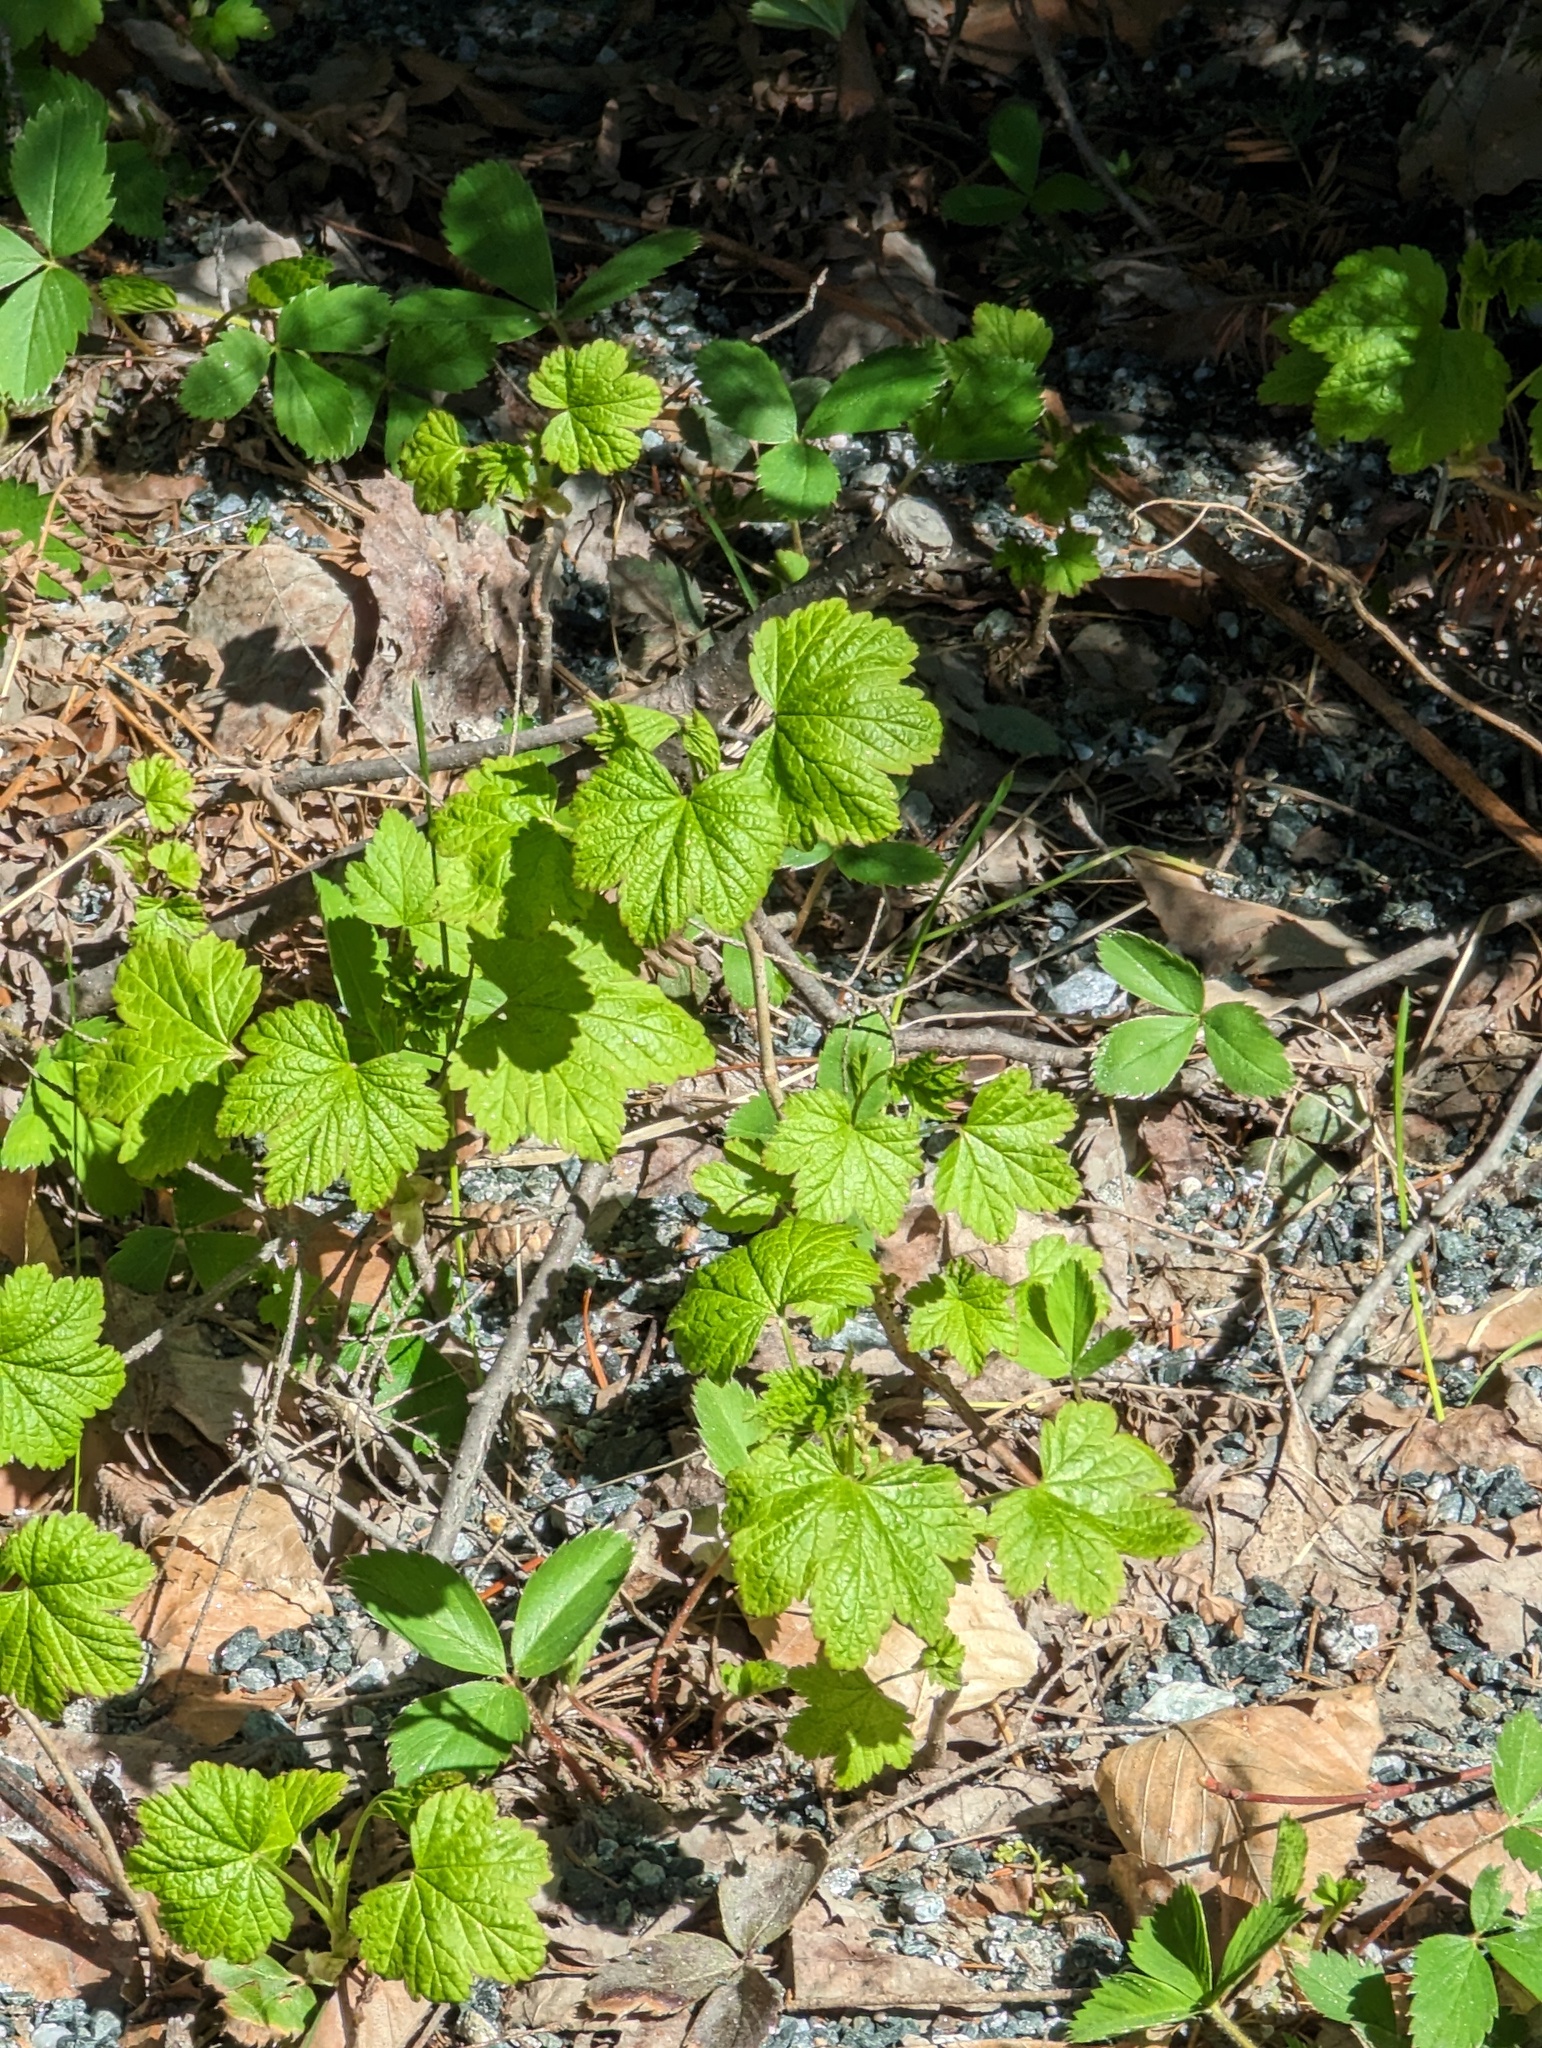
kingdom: Plantae
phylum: Tracheophyta
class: Magnoliopsida
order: Saxifragales
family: Grossulariaceae
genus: Ribes
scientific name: Ribes glandulosum
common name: Skunk currant
